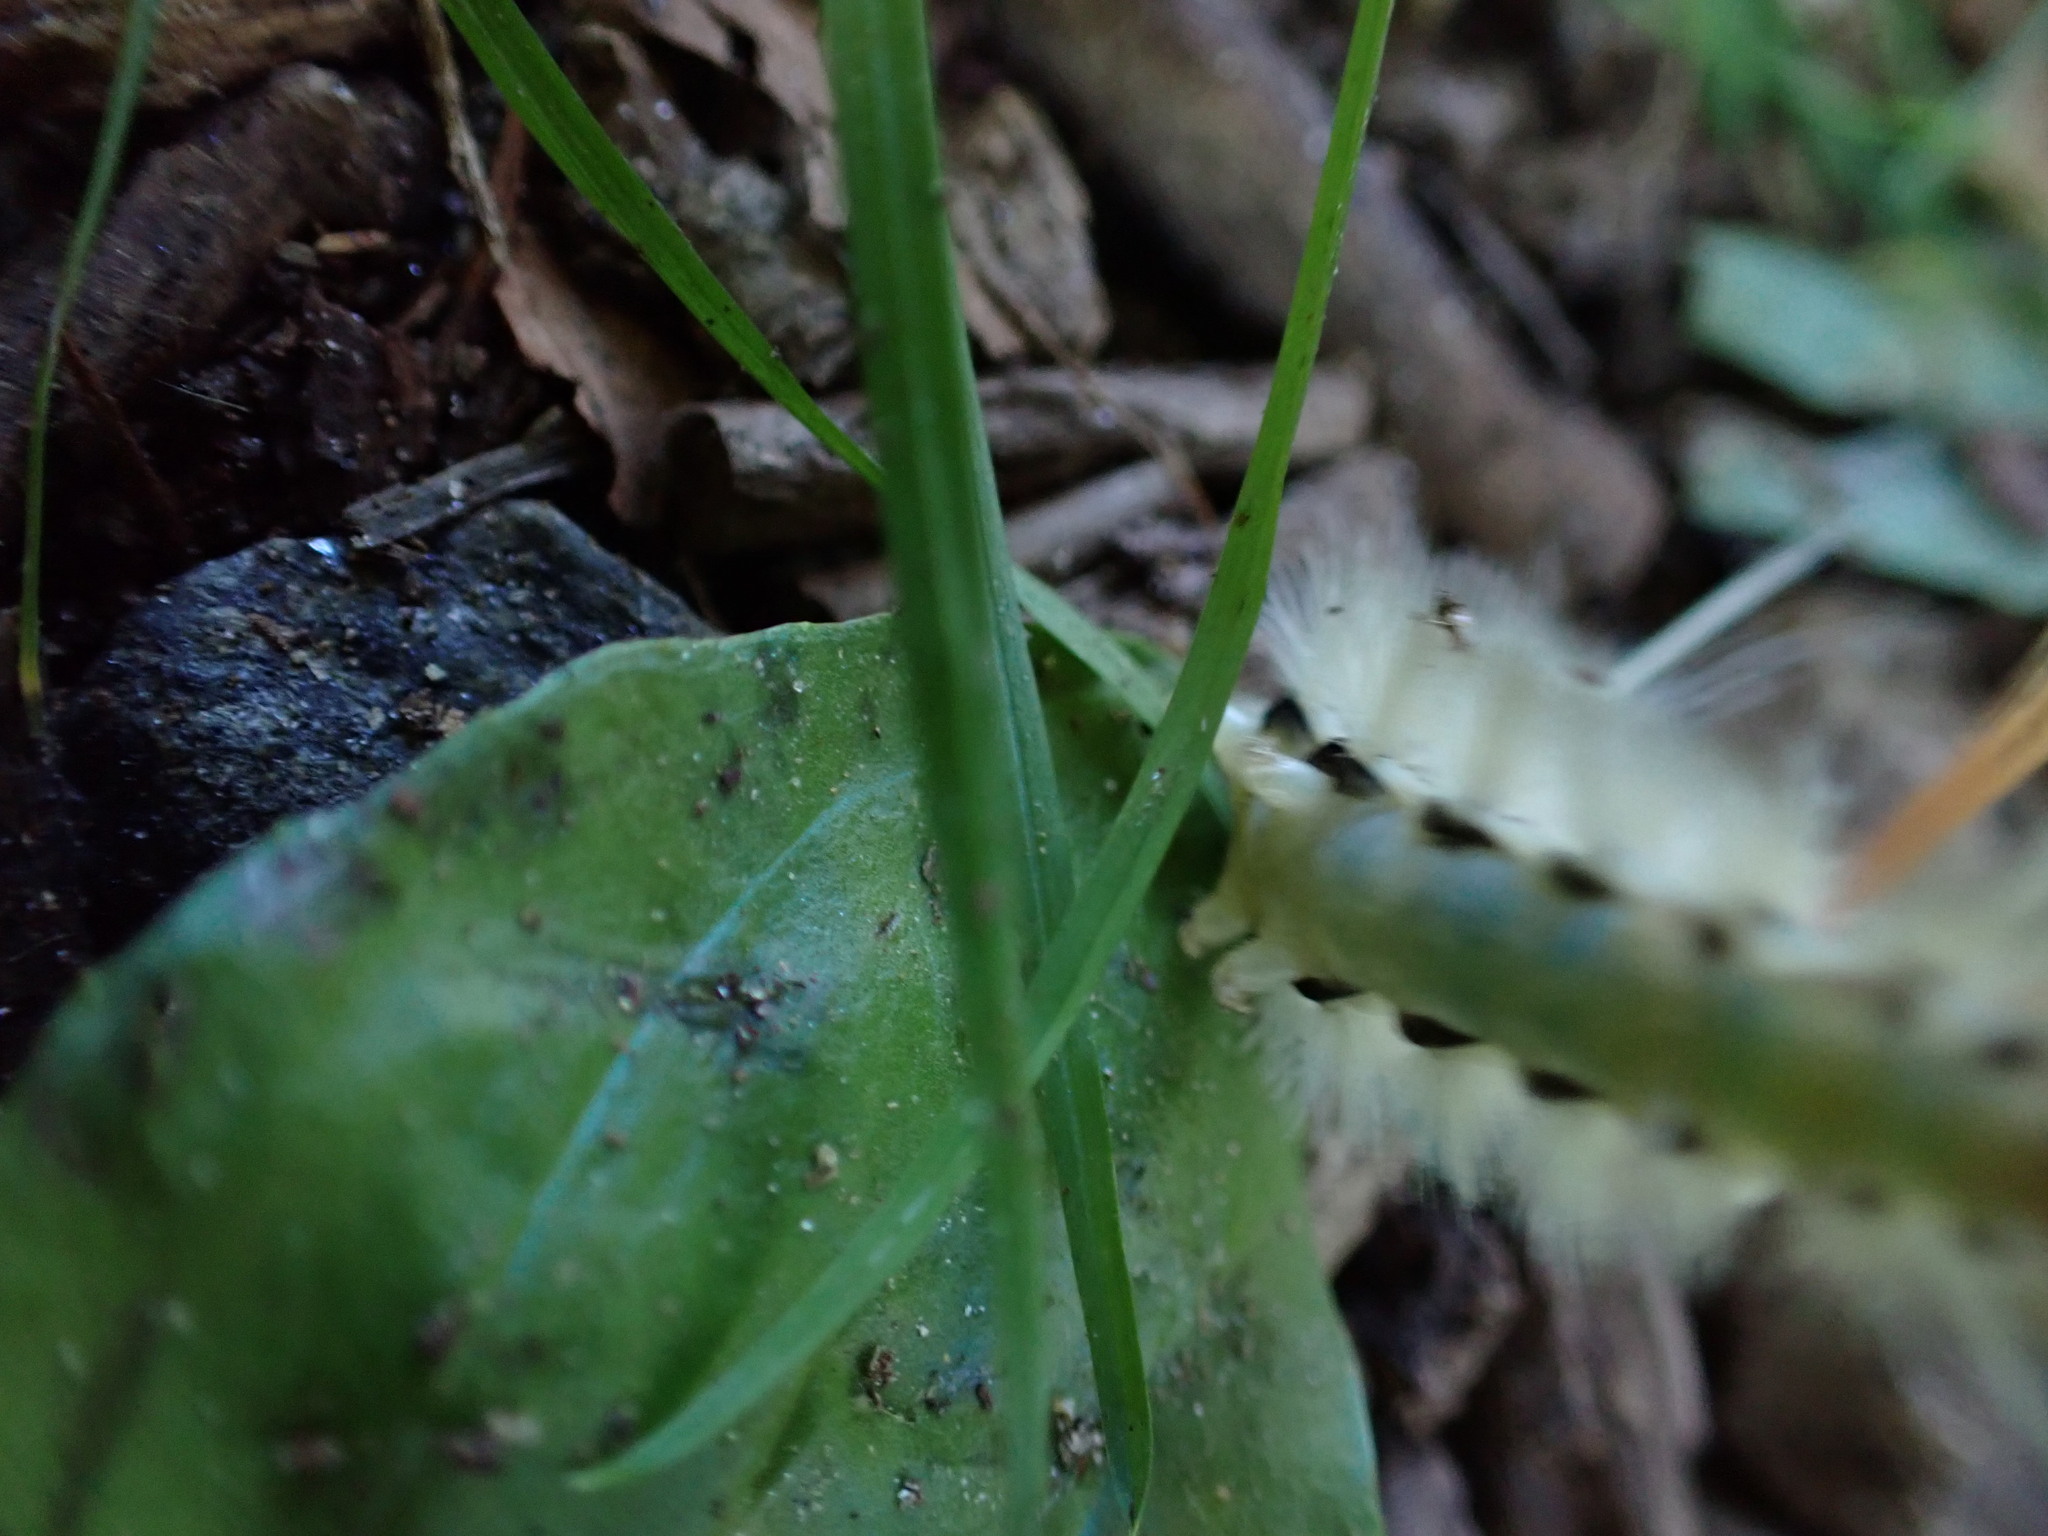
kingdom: Animalia
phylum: Arthropoda
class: Insecta
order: Lepidoptera
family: Erebidae
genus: Halysidota
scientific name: Halysidota harrisii
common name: Sycamore tussock moth
